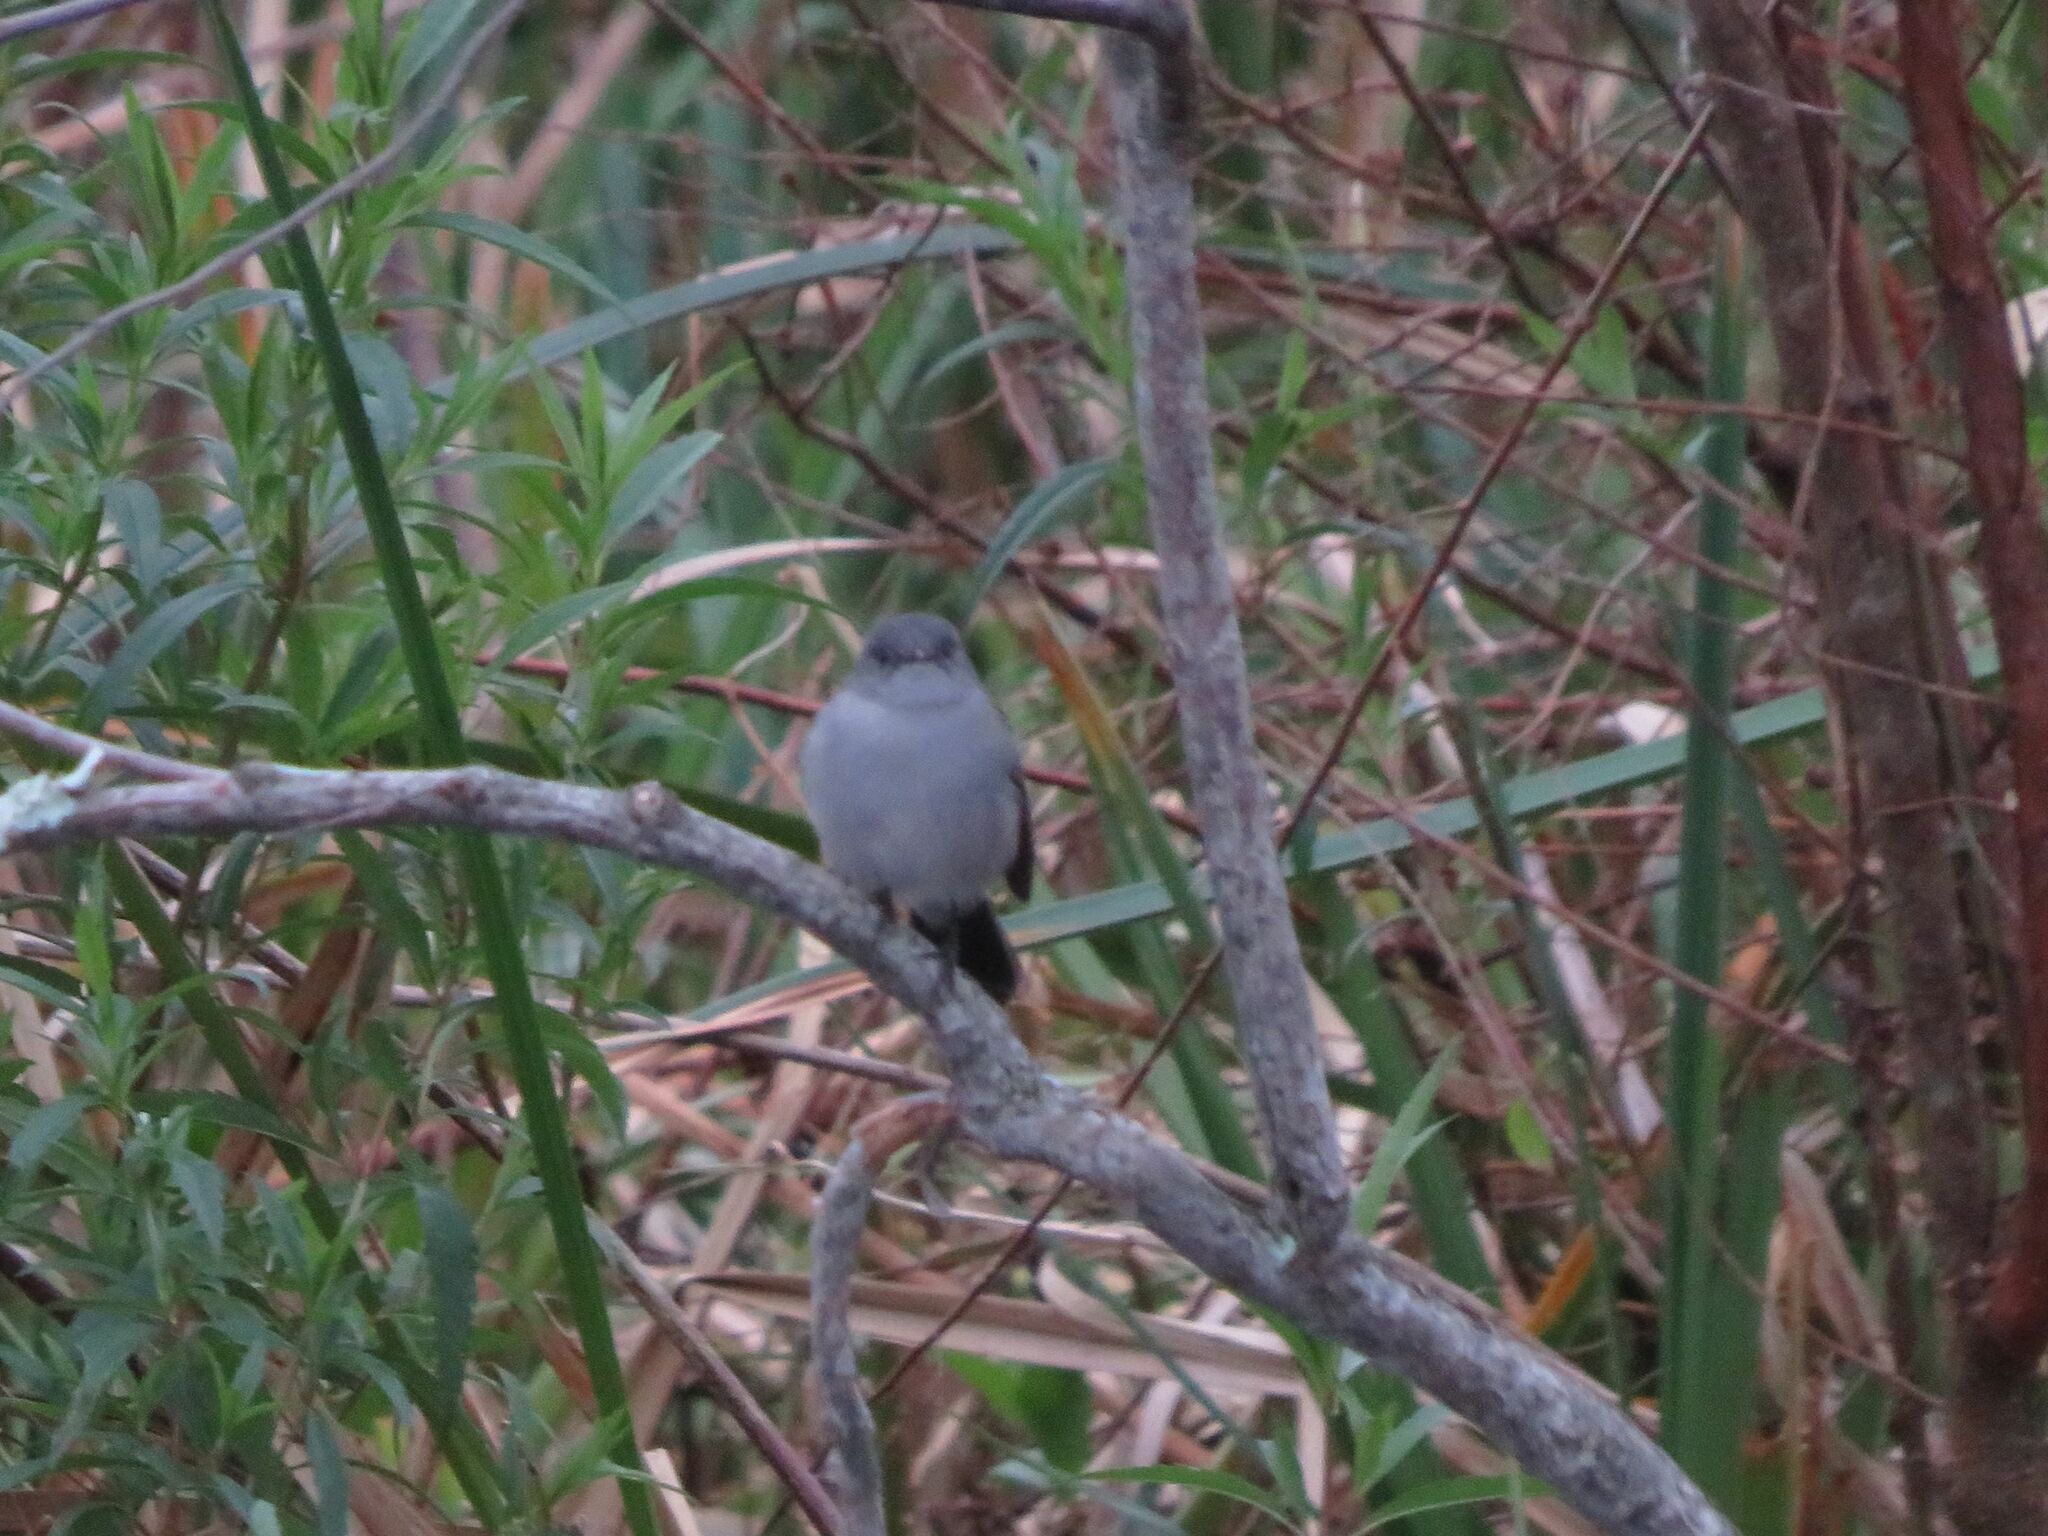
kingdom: Animalia
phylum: Chordata
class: Aves
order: Passeriformes
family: Tyrannidae
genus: Serpophaga
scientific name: Serpophaga nigricans
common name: Sooty tyrannulet
